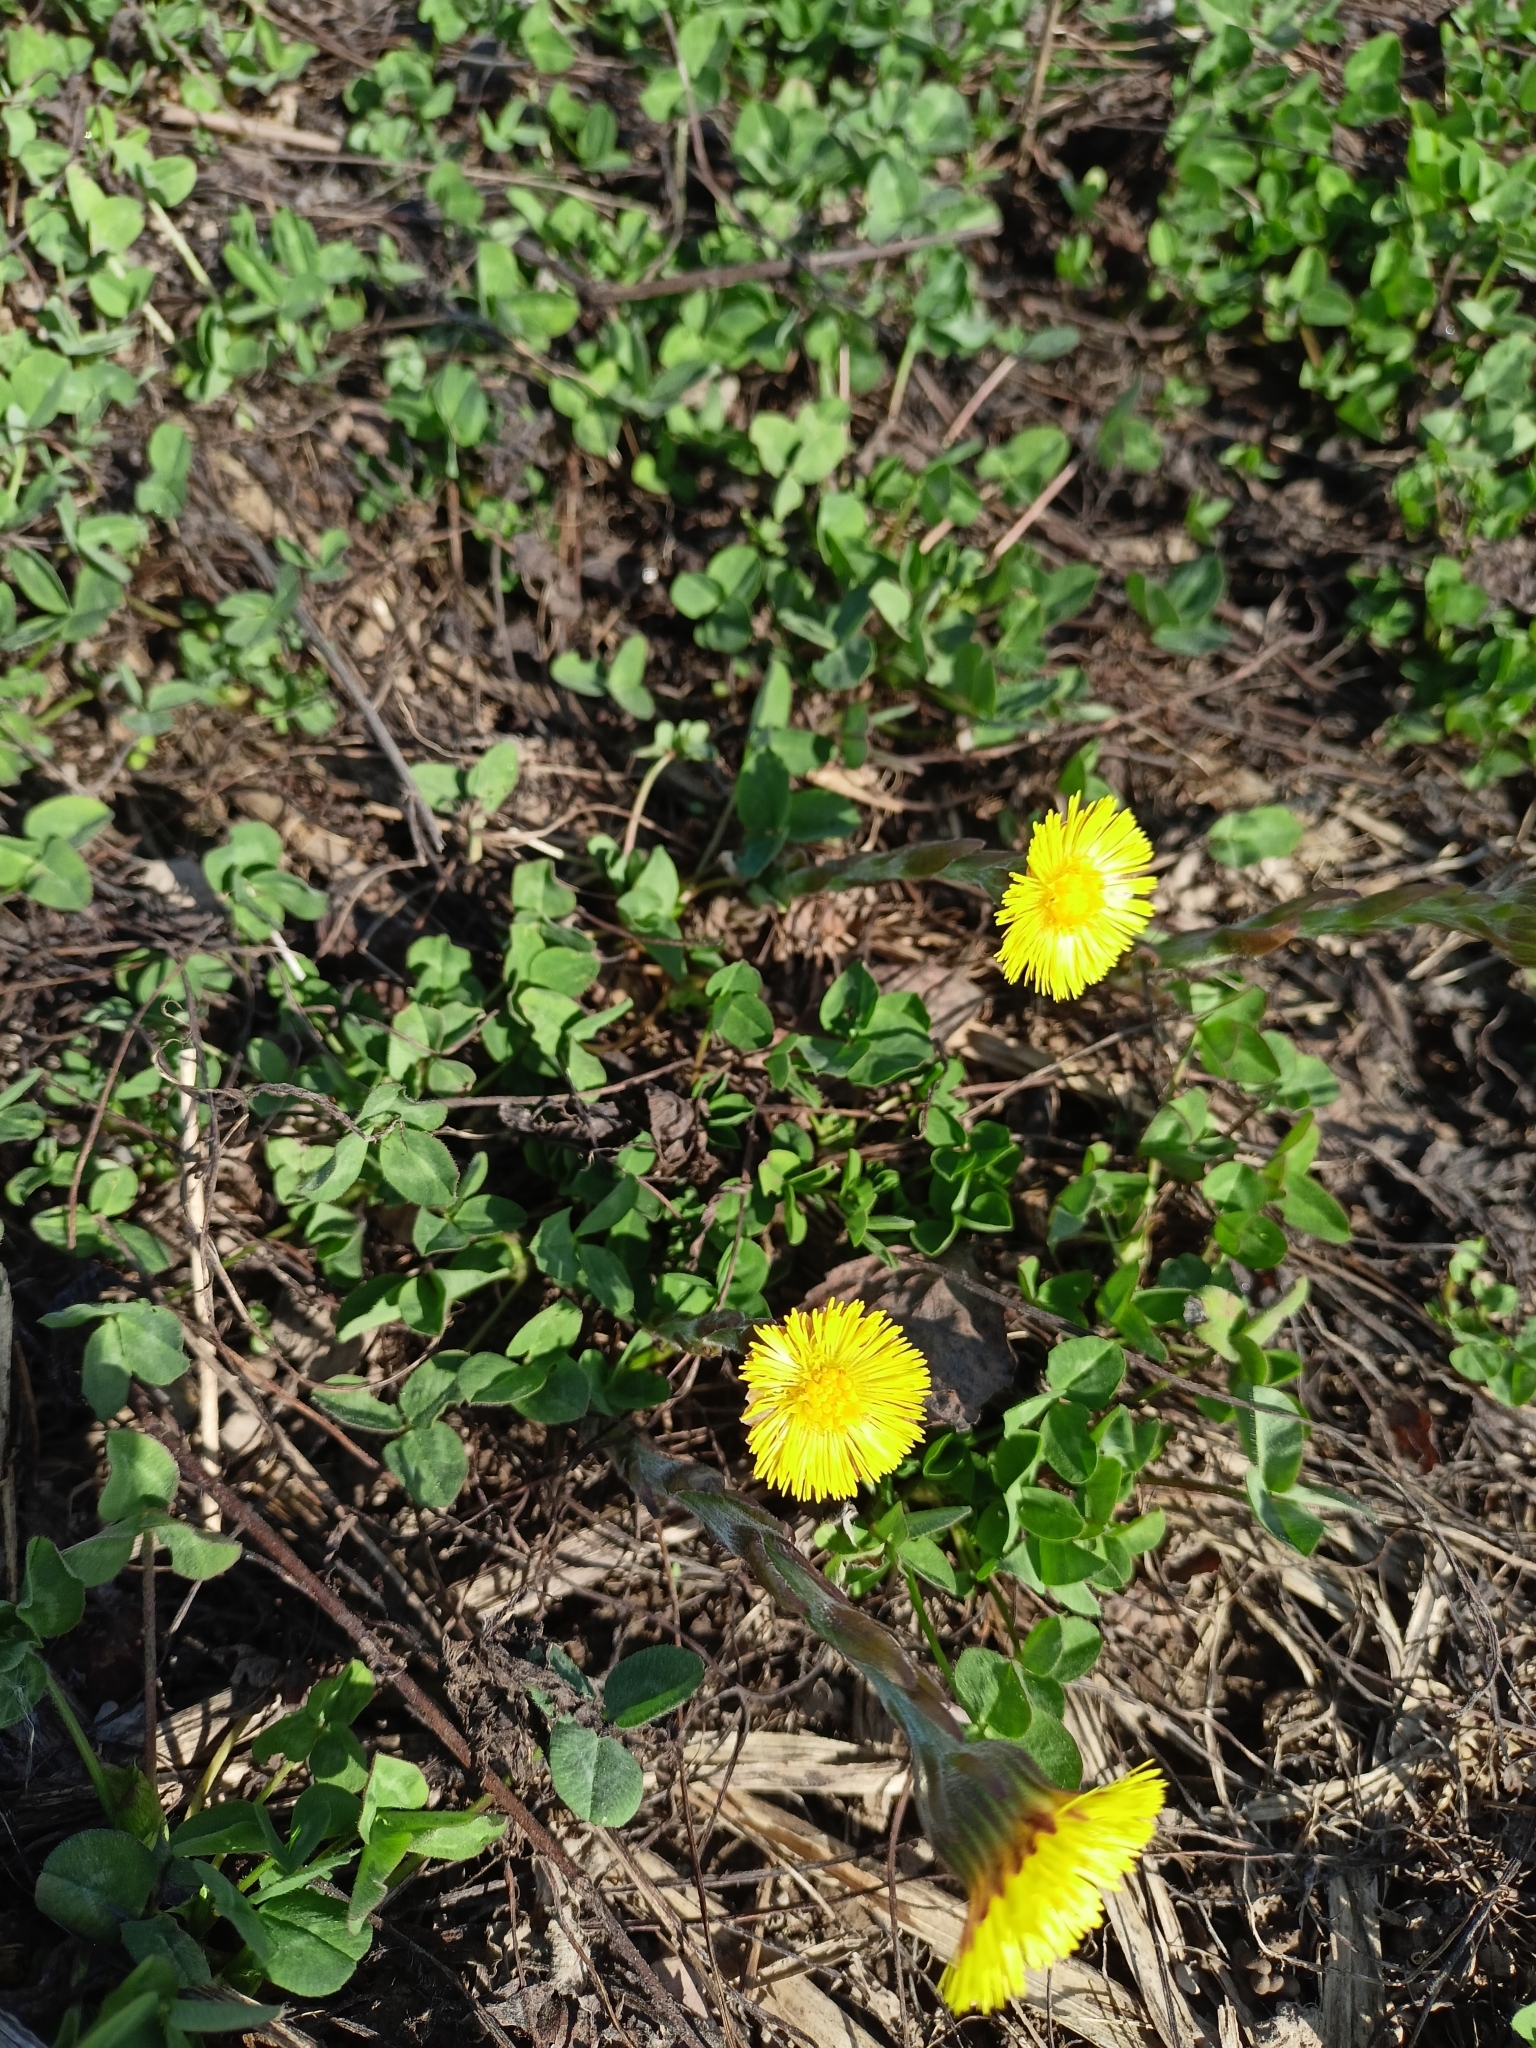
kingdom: Plantae
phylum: Tracheophyta
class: Magnoliopsida
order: Asterales
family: Asteraceae
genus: Tussilago
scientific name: Tussilago farfara
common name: Coltsfoot
